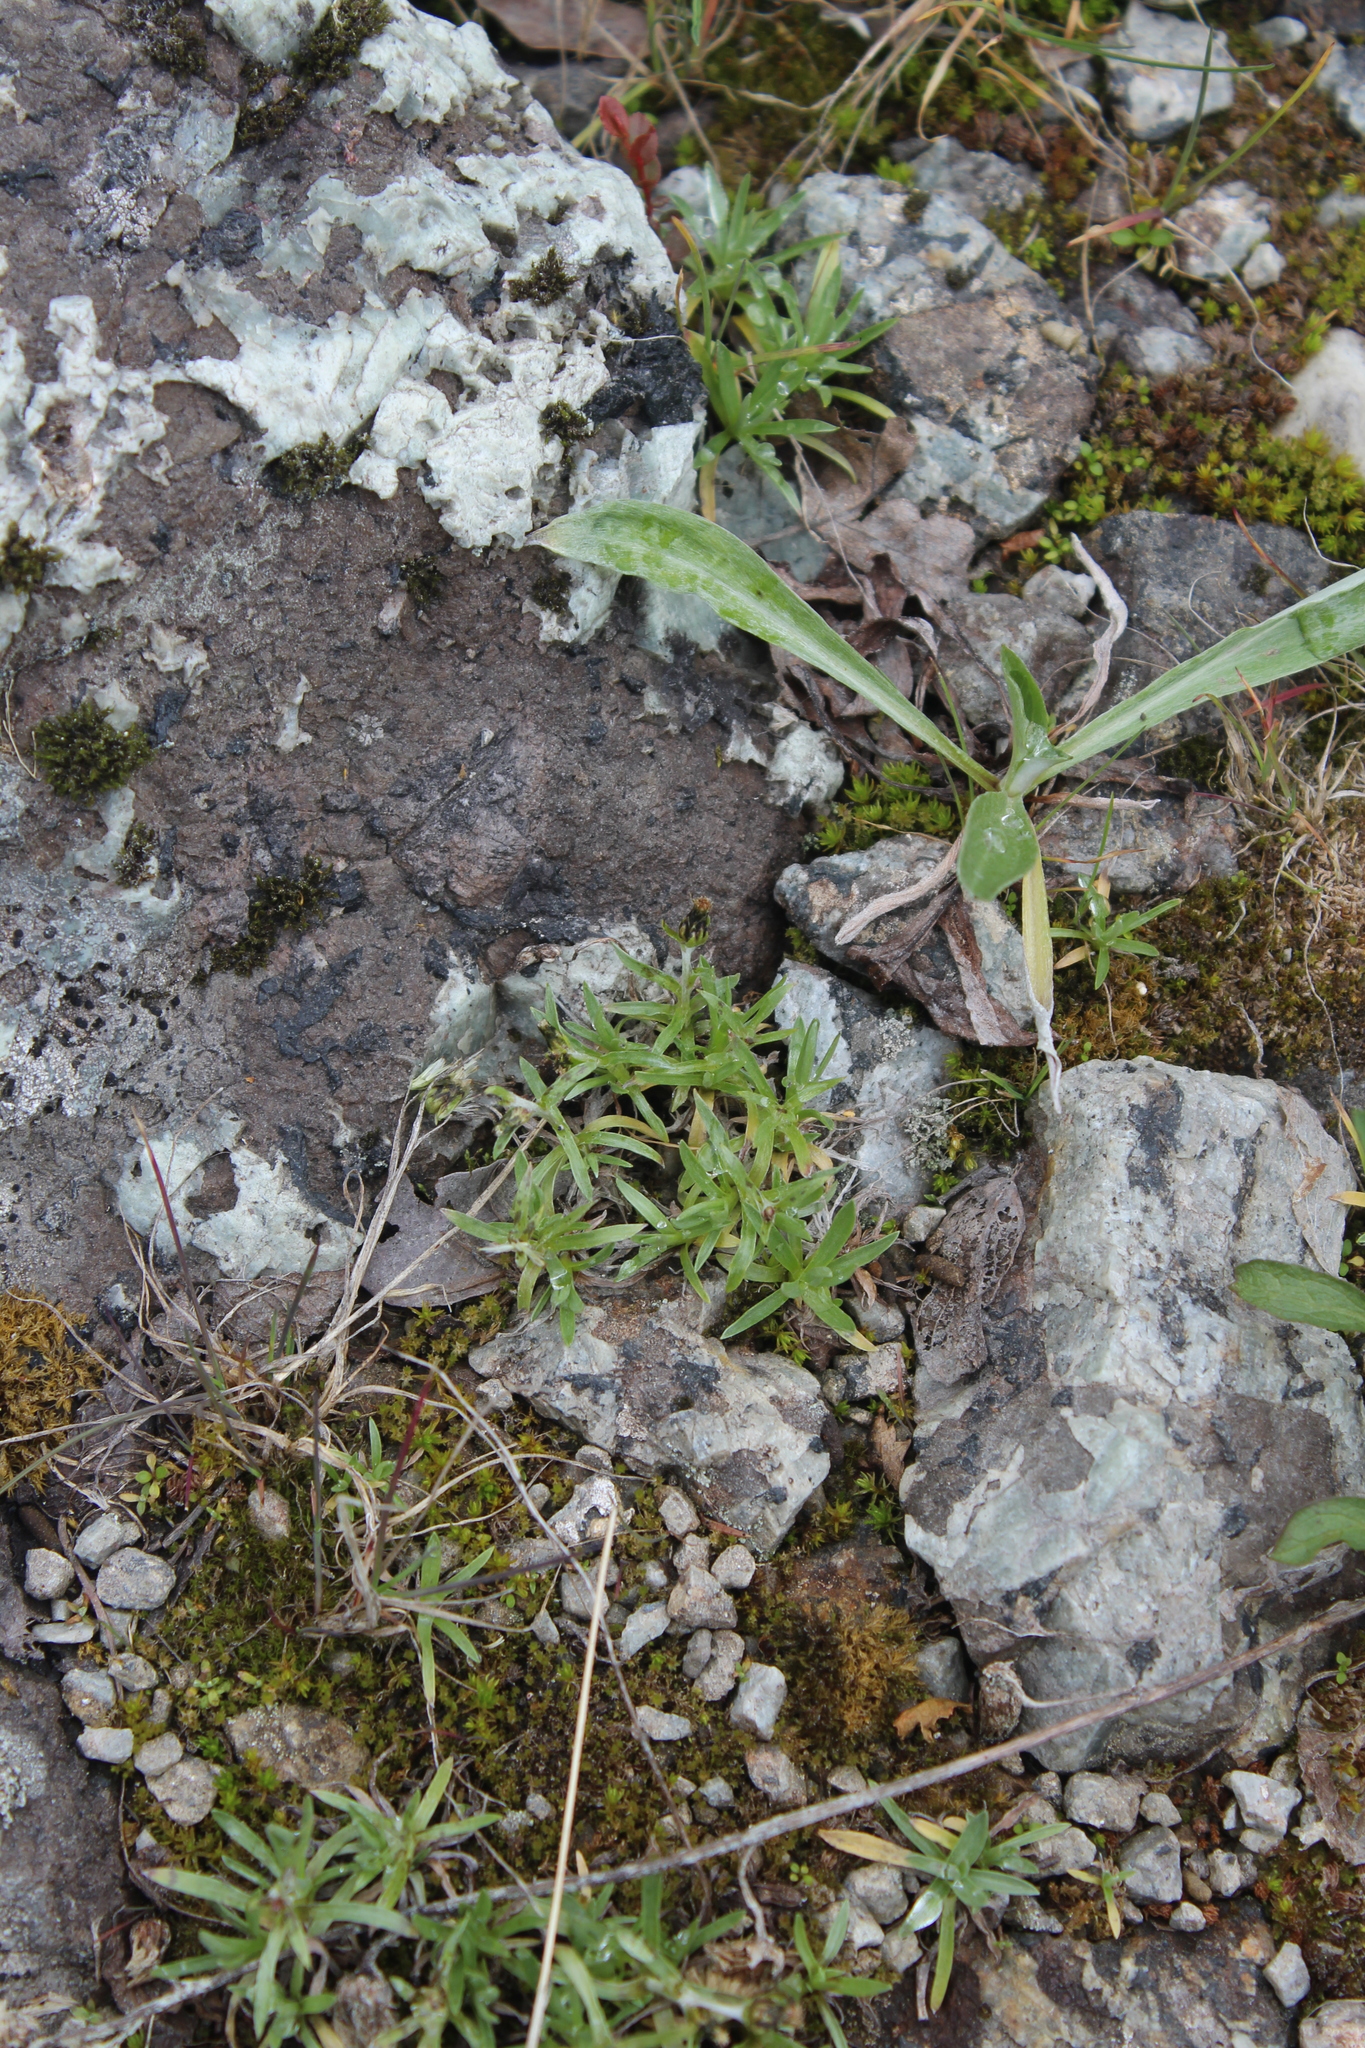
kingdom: Plantae
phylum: Tracheophyta
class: Magnoliopsida
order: Asterales
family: Asteraceae
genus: Omalotheca
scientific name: Omalotheca supina
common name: Alpine arctic-cudweed
